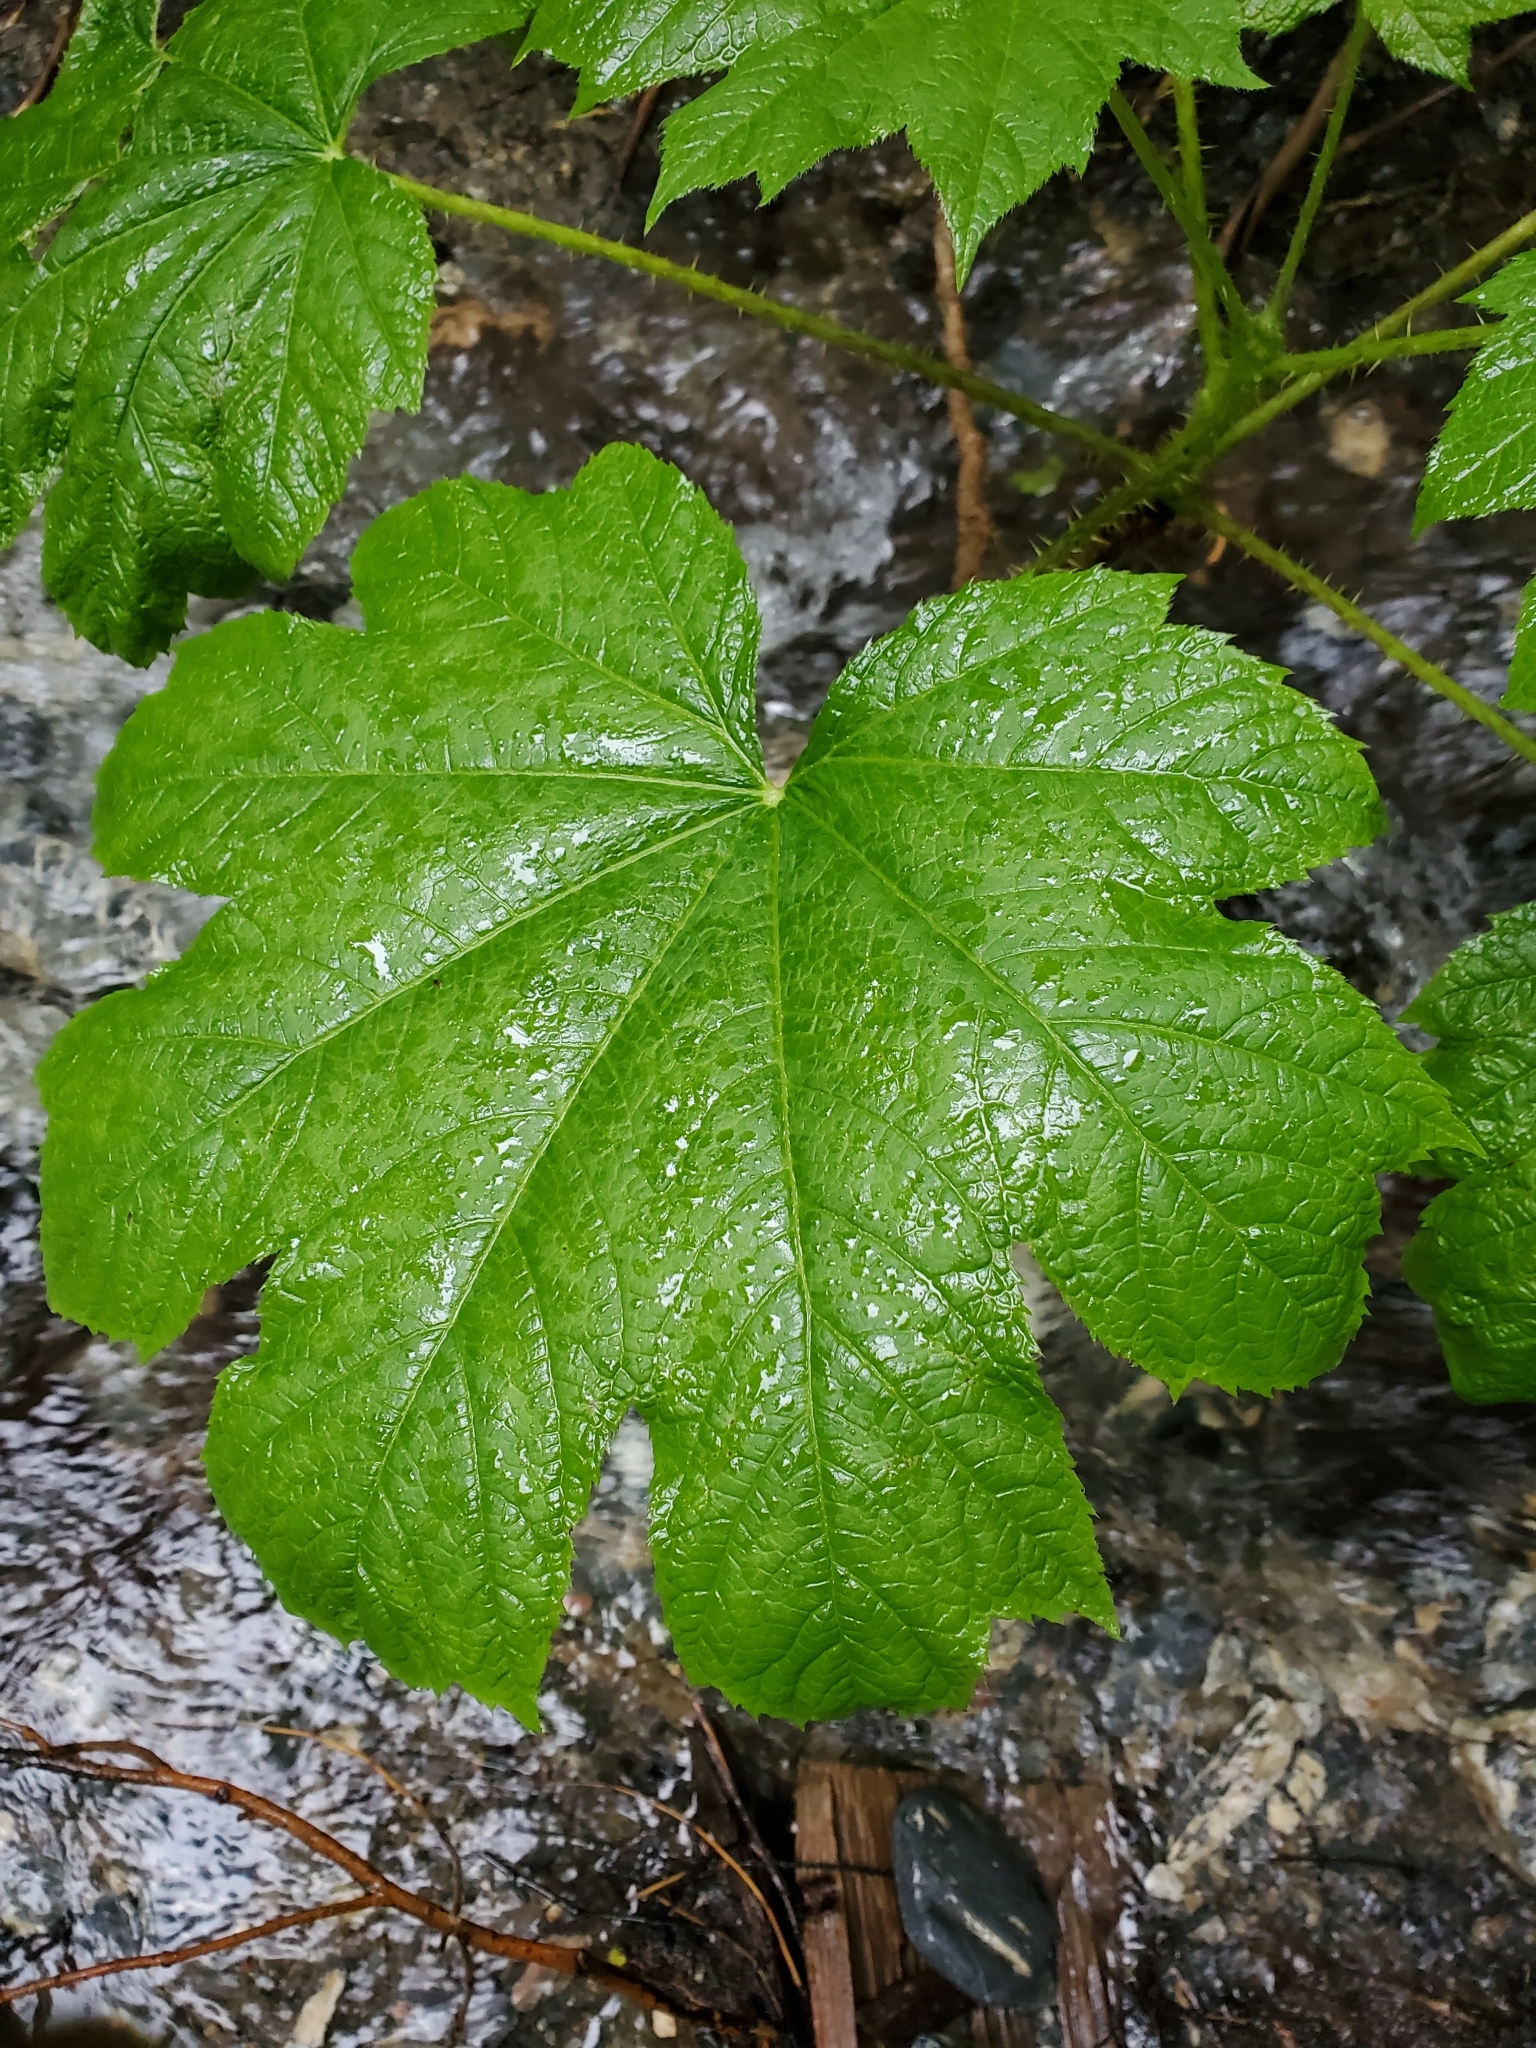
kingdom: Plantae
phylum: Tracheophyta
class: Magnoliopsida
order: Apiales
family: Araliaceae
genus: Oplopanax
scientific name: Oplopanax horridus
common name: Devil's walking-stick
